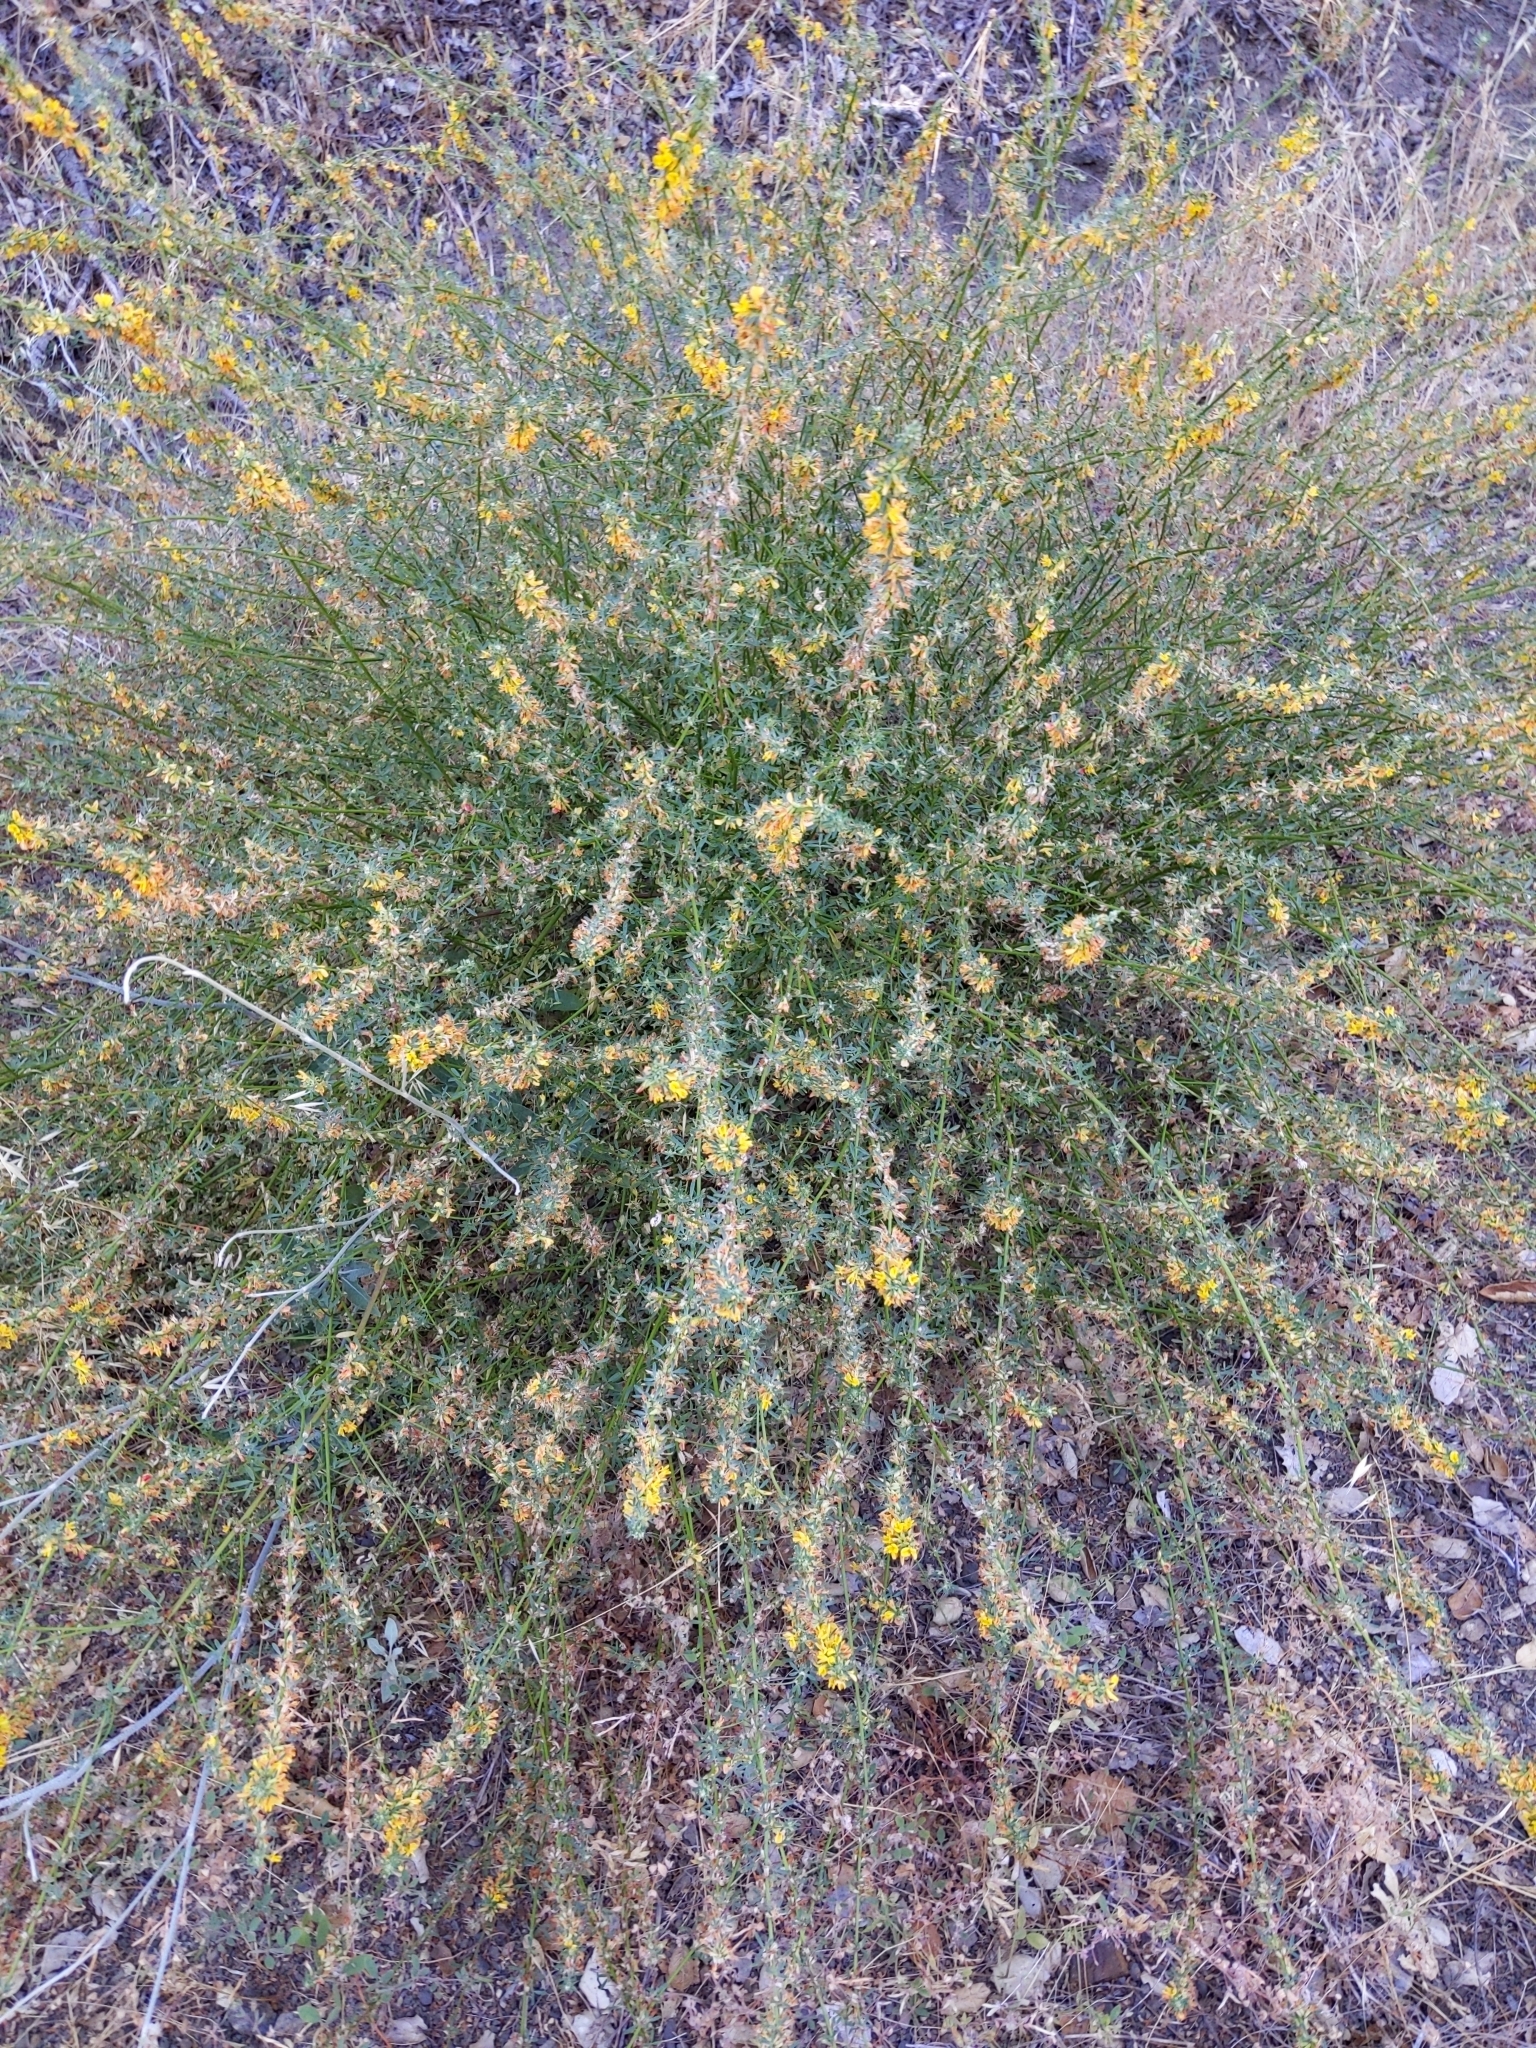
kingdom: Plantae
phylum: Tracheophyta
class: Magnoliopsida
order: Fabales
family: Fabaceae
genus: Acmispon
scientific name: Acmispon glaber
